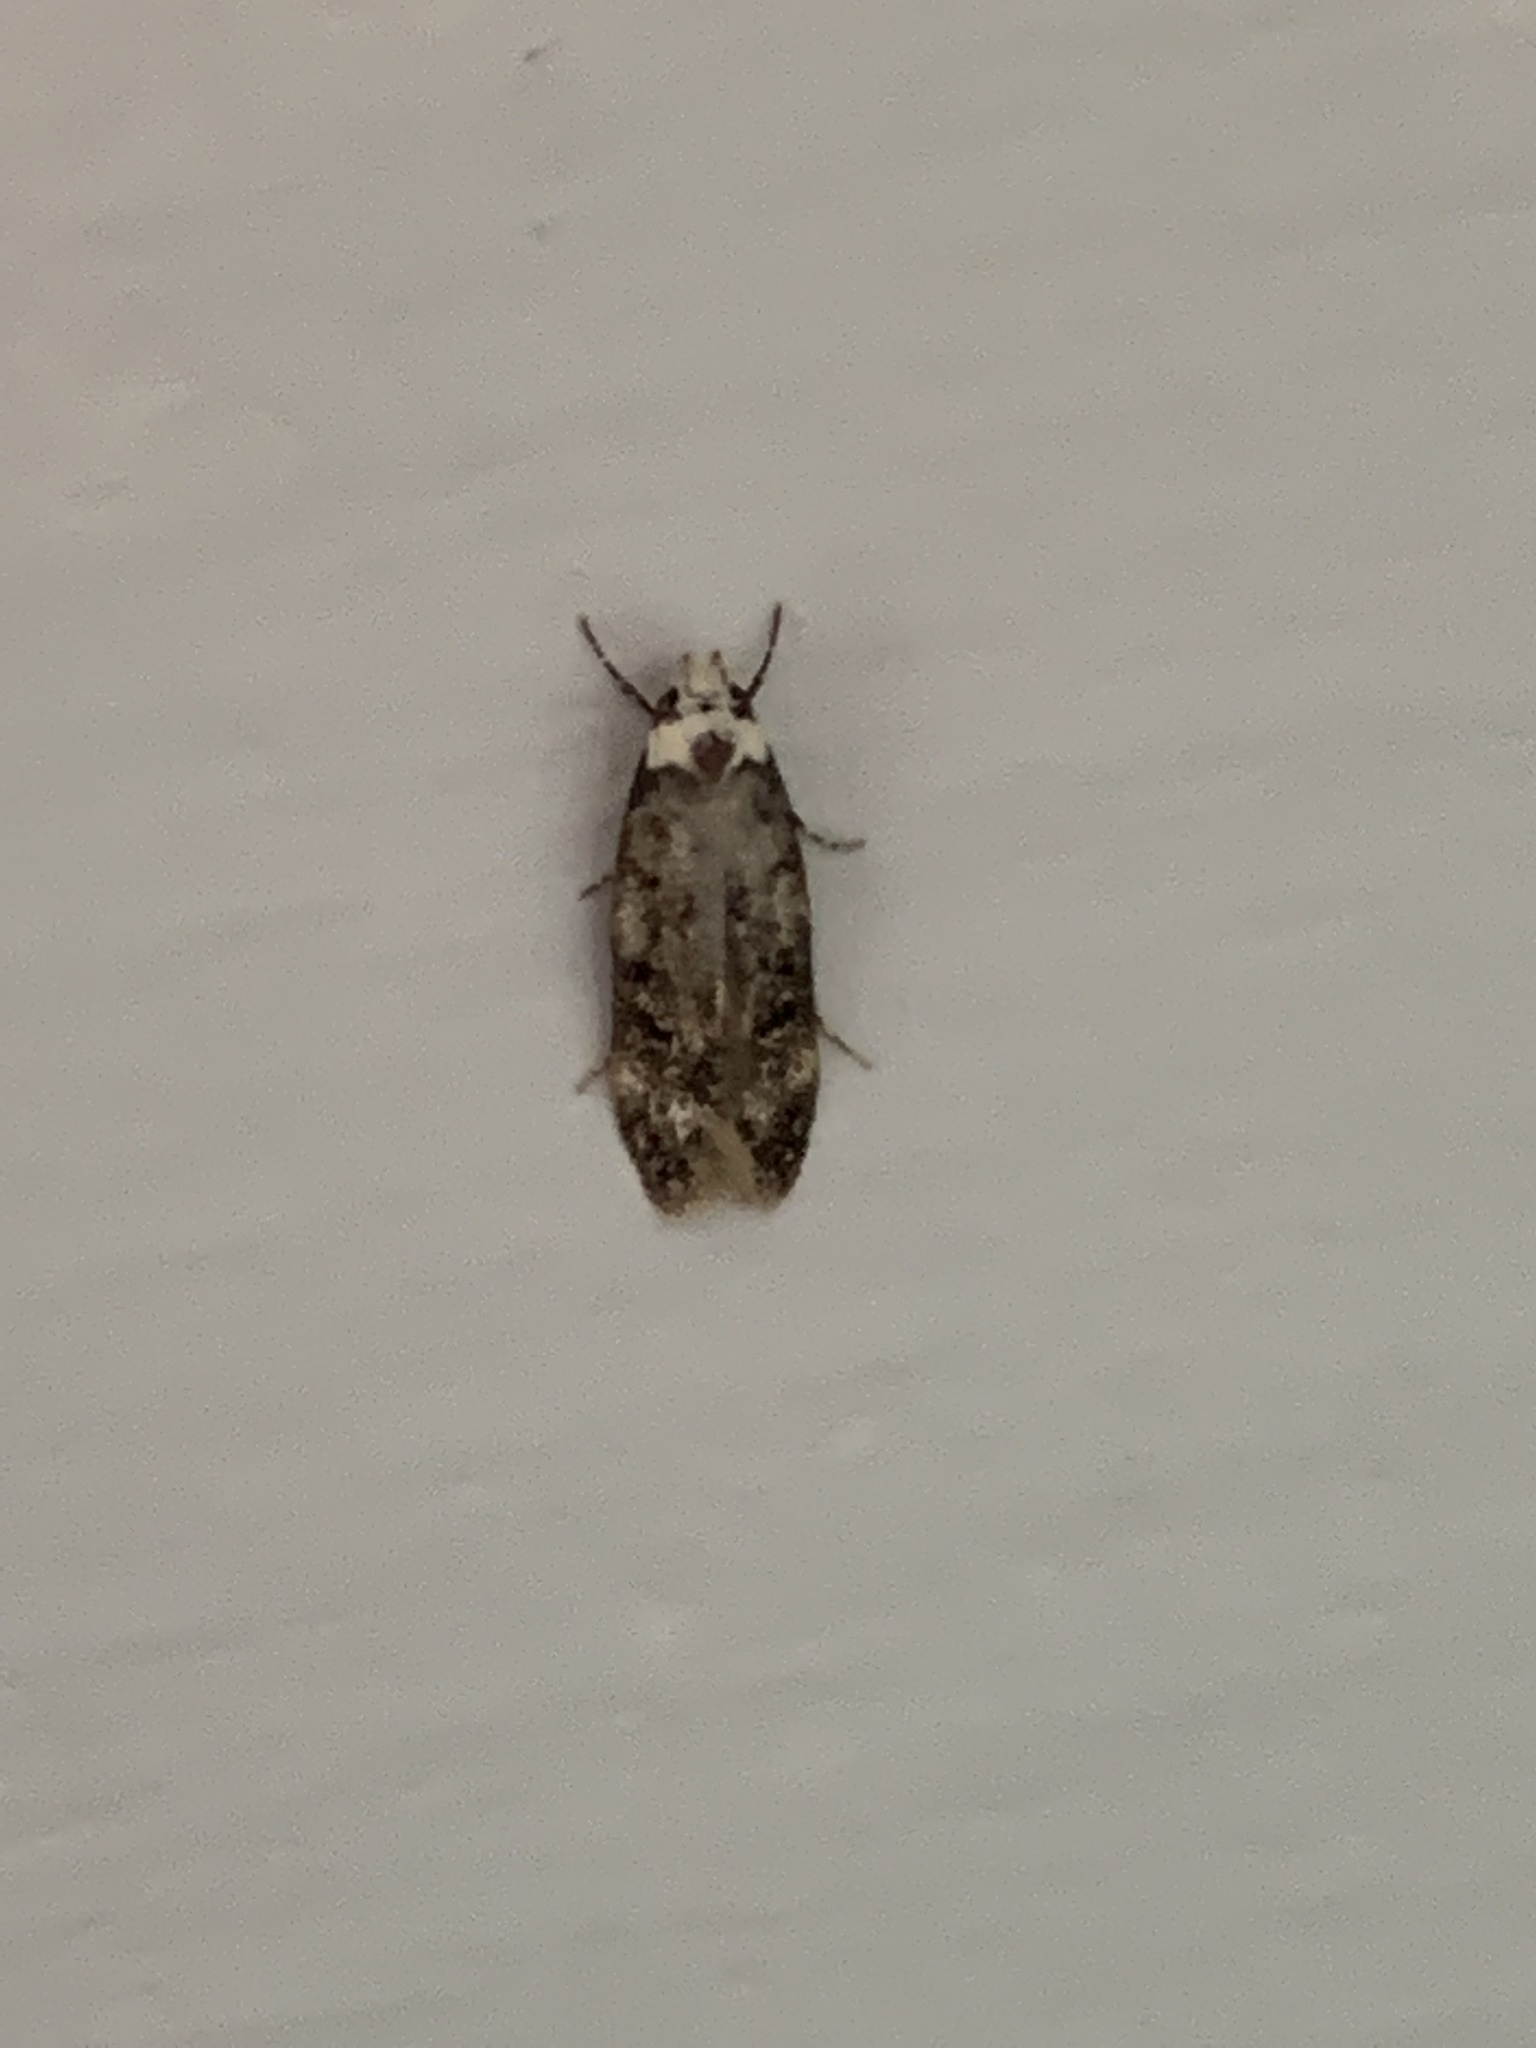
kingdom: Animalia
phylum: Arthropoda
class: Insecta
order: Lepidoptera
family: Oecophoridae
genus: Endrosis
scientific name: Endrosis sarcitrella
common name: White-shouldered house moth
